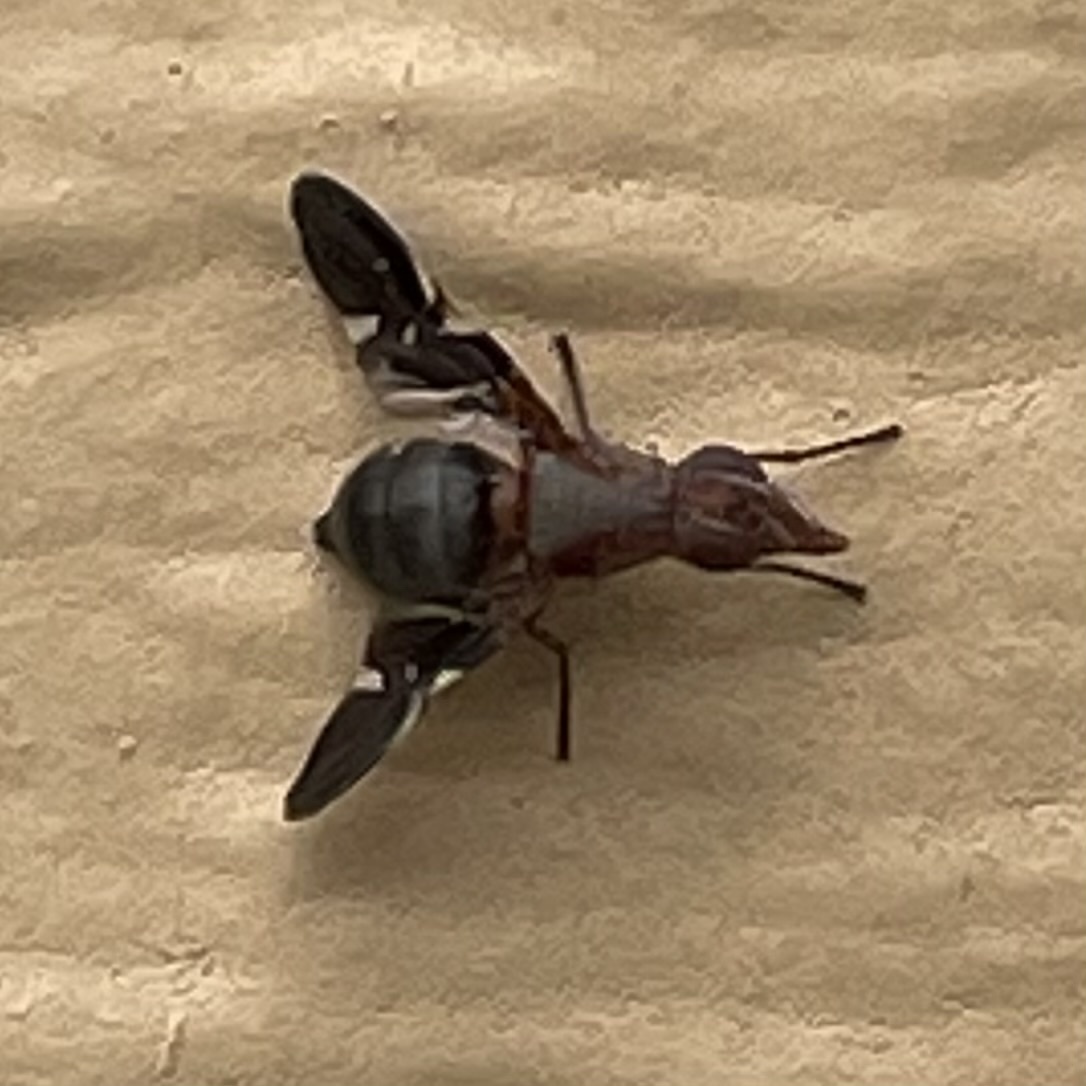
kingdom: Animalia
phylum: Arthropoda
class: Insecta
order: Diptera
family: Ulidiidae
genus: Delphinia
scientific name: Delphinia picta
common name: Common picture-winged fly
